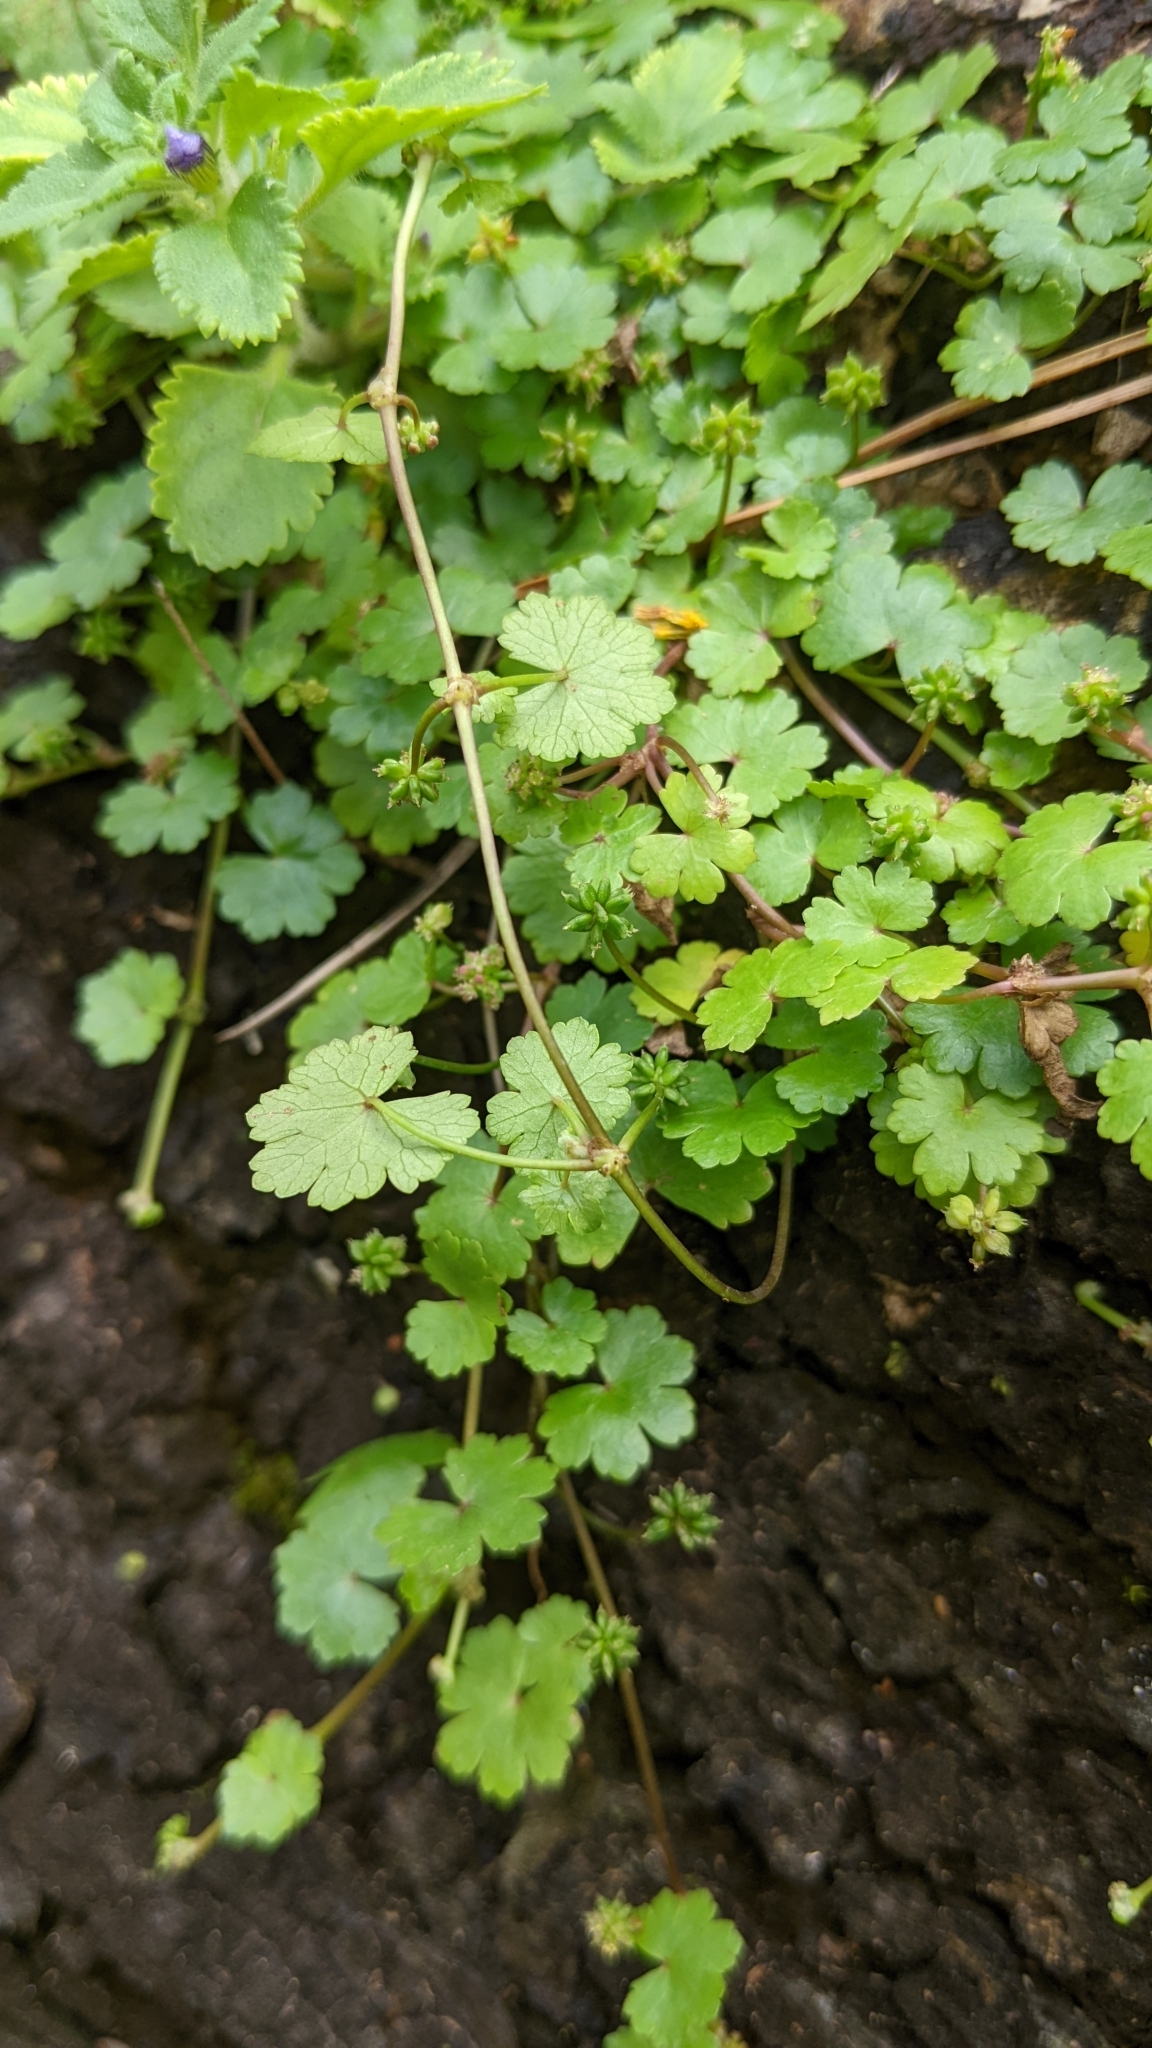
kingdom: Plantae
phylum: Tracheophyta
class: Magnoliopsida
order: Apiales
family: Araliaceae
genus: Hydrocotyle
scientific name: Hydrocotyle sibthorpioides
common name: Lawn marshpennywort
